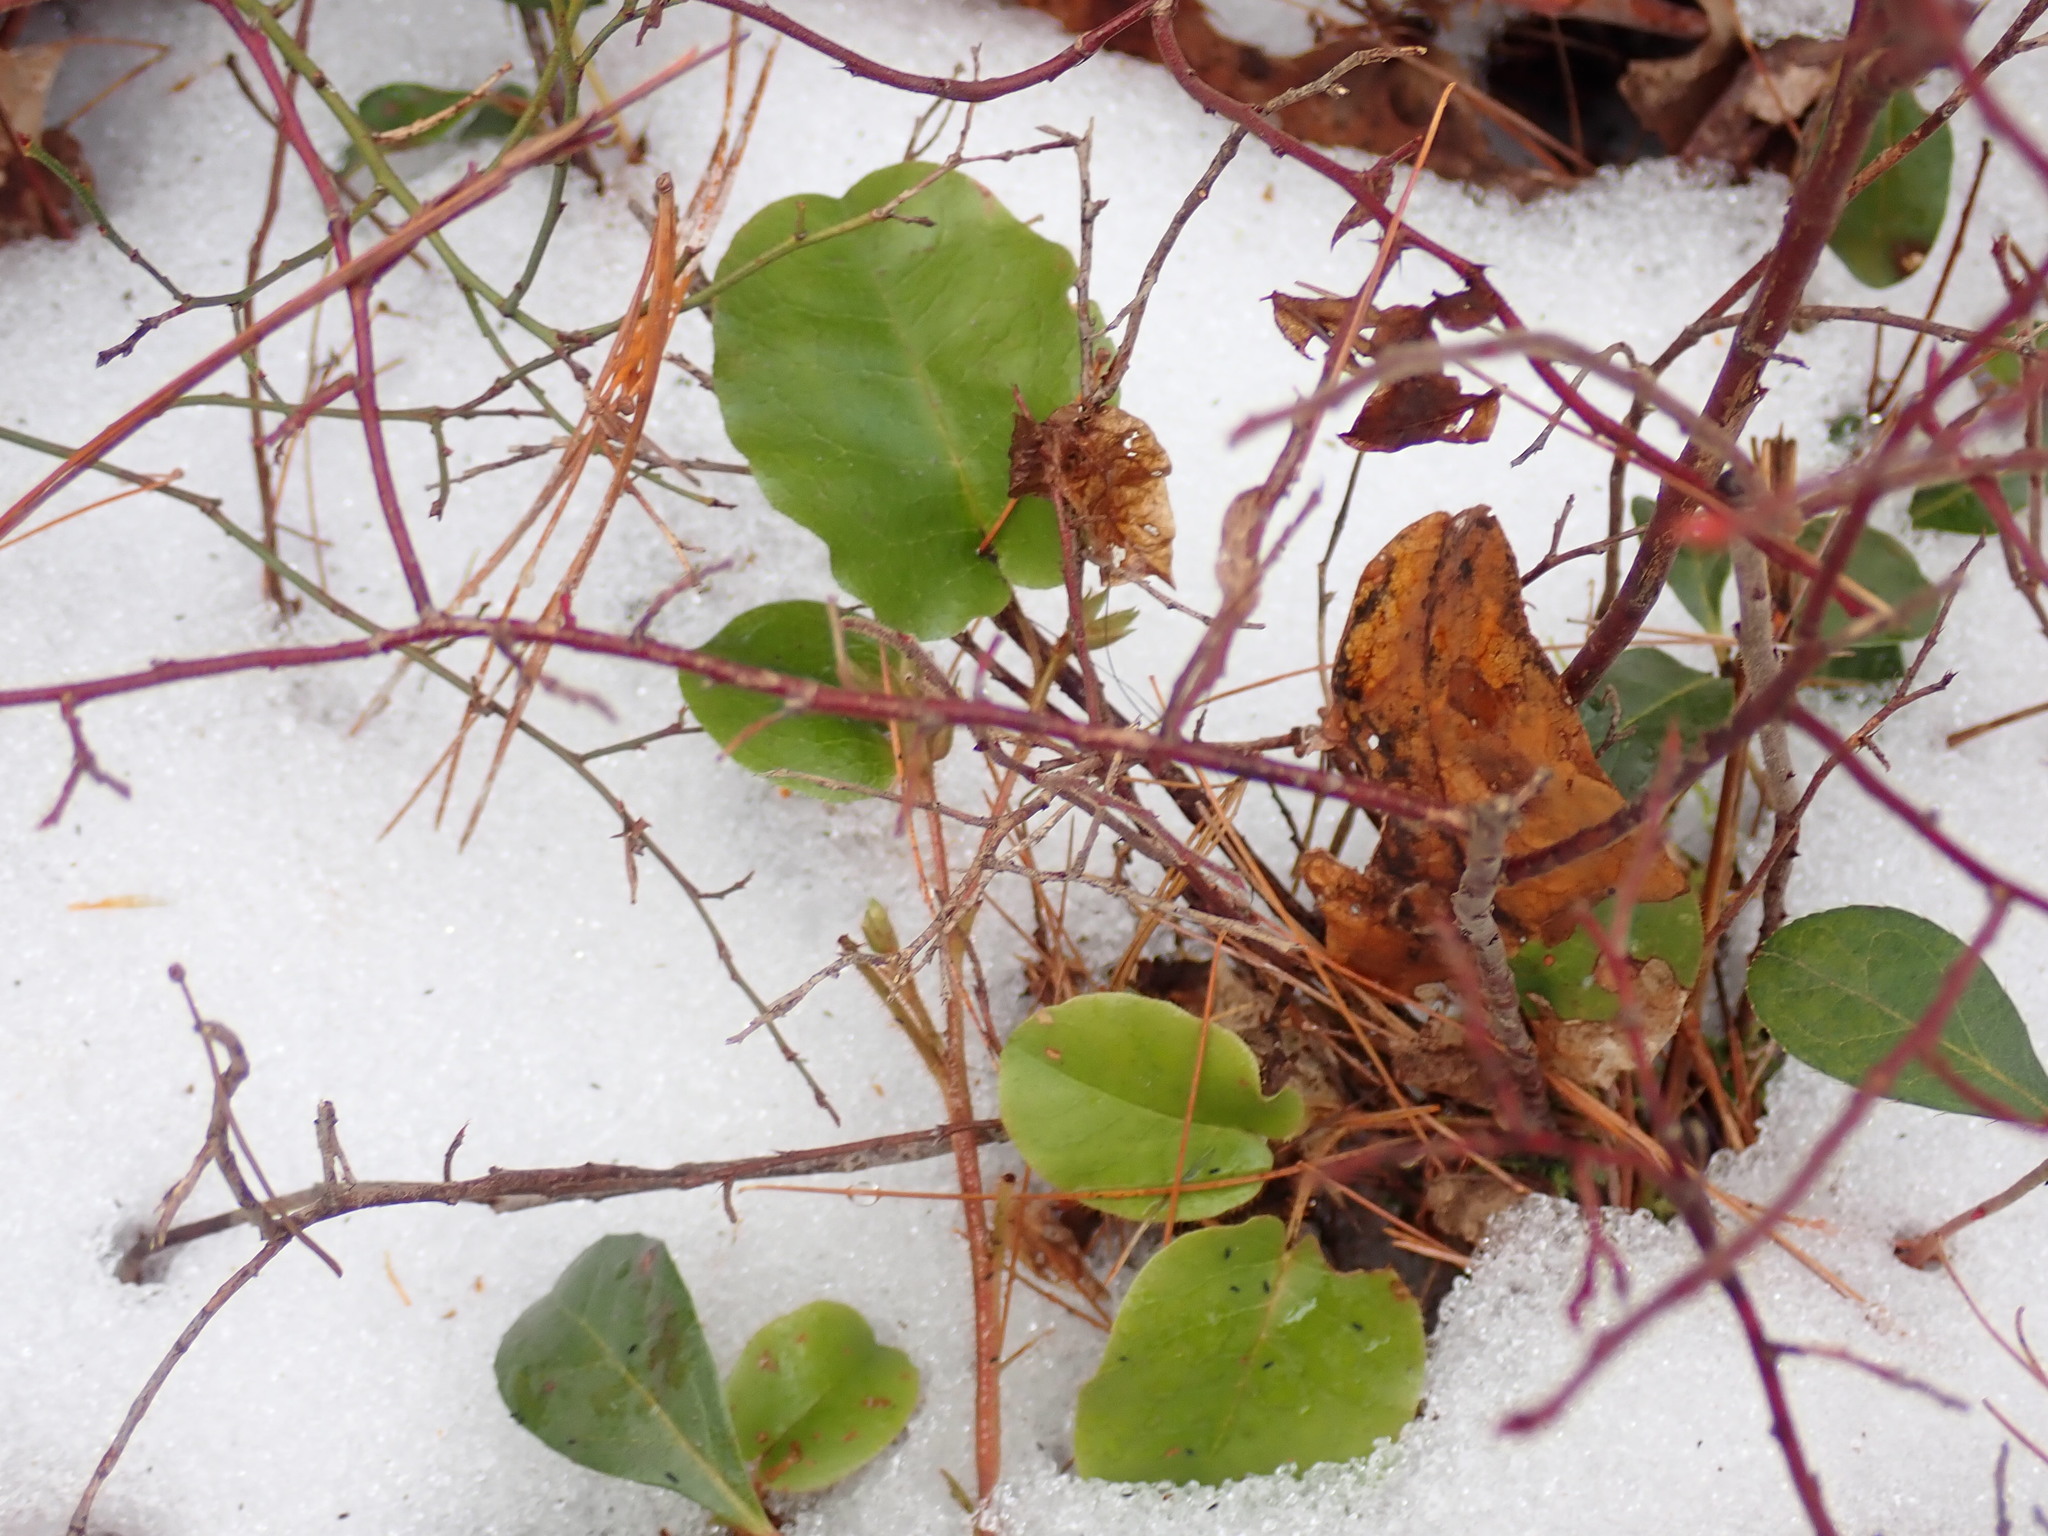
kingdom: Plantae
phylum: Tracheophyta
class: Magnoliopsida
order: Ericales
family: Ericaceae
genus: Epigaea
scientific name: Epigaea repens
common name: Gravelroot
